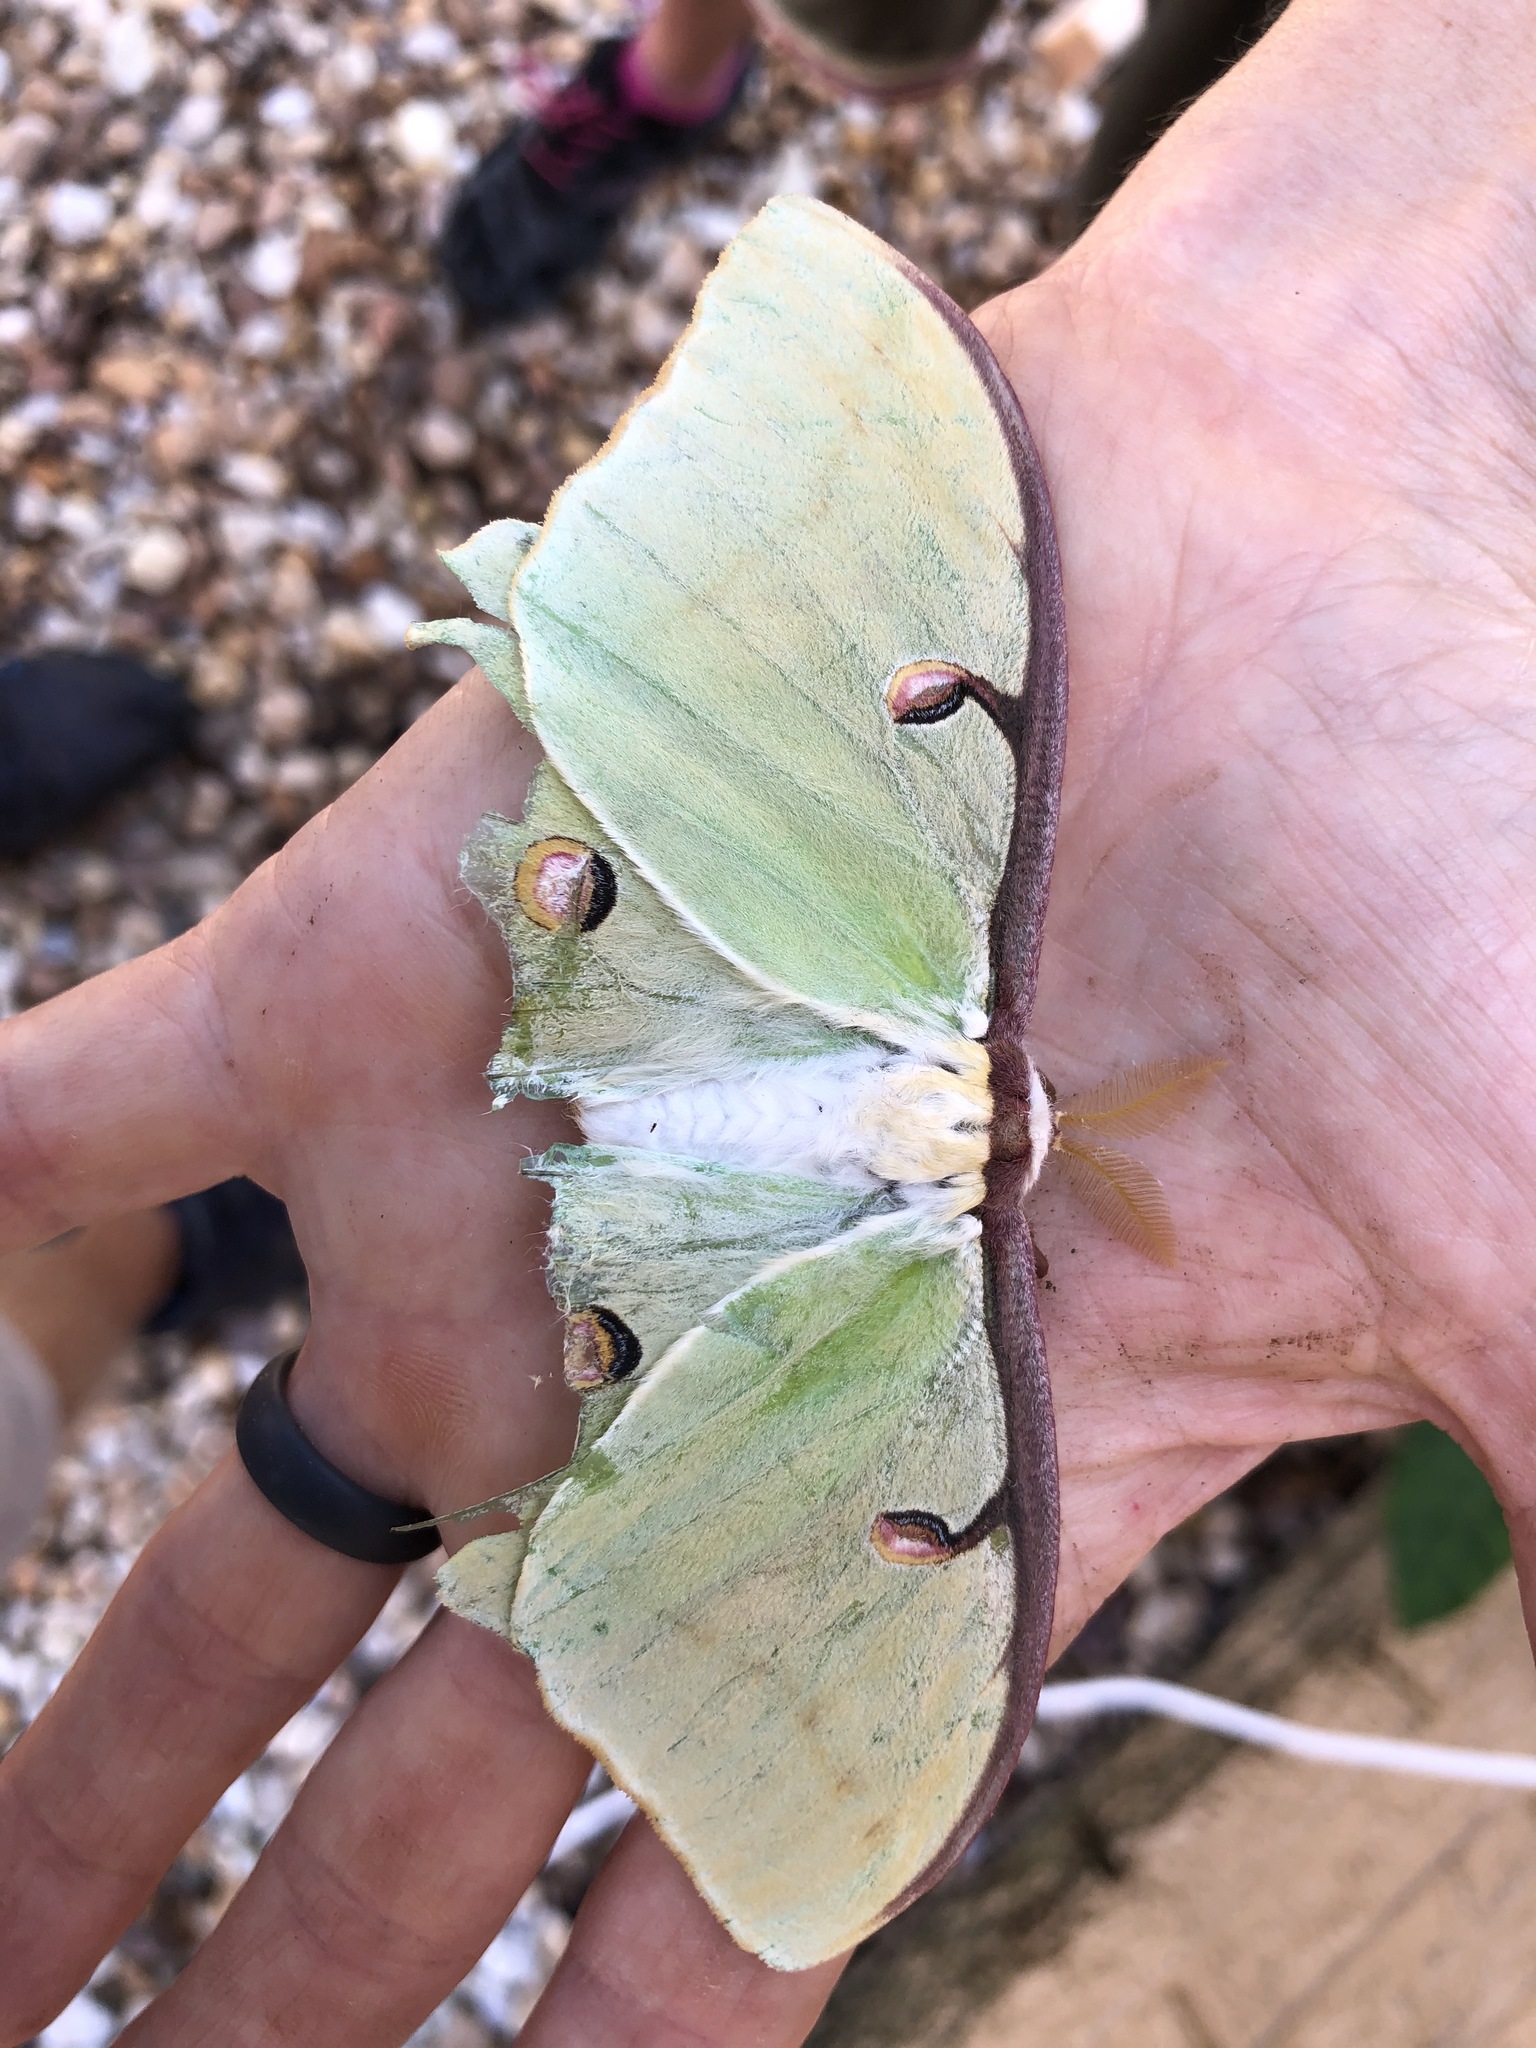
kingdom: Animalia
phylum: Arthropoda
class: Insecta
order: Lepidoptera
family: Saturniidae
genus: Actias
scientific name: Actias luna
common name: Luna moth
